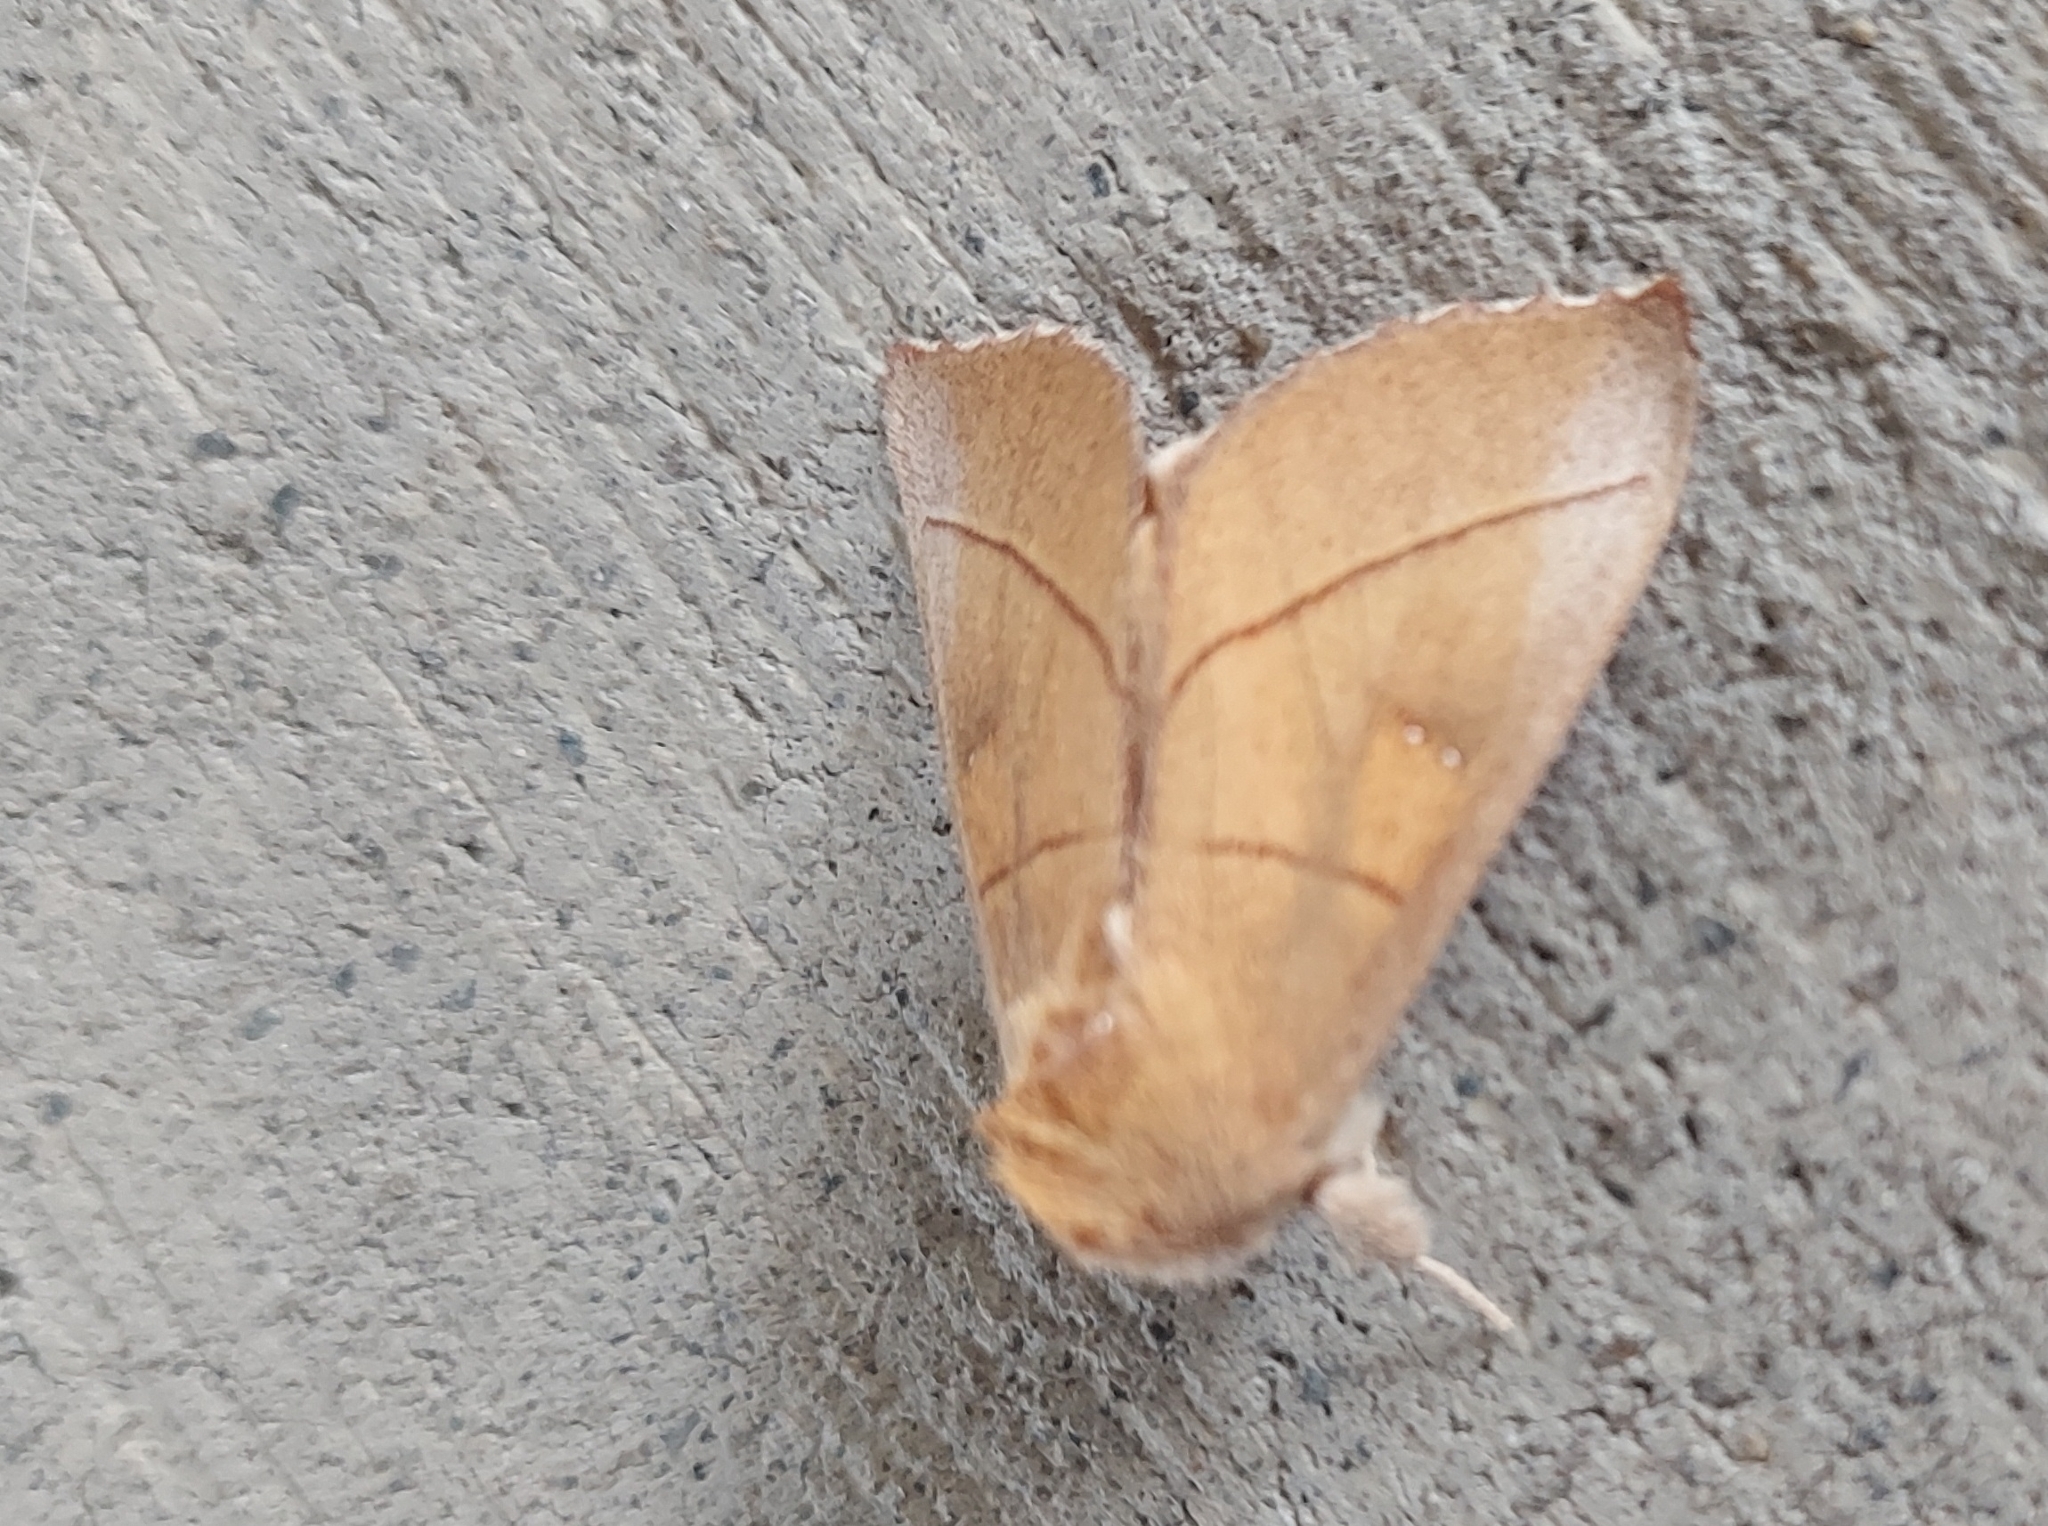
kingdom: Animalia
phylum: Arthropoda
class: Insecta
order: Lepidoptera
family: Notodontidae
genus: Nadata
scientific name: Nadata gibbosa
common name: White-dotted prominent
